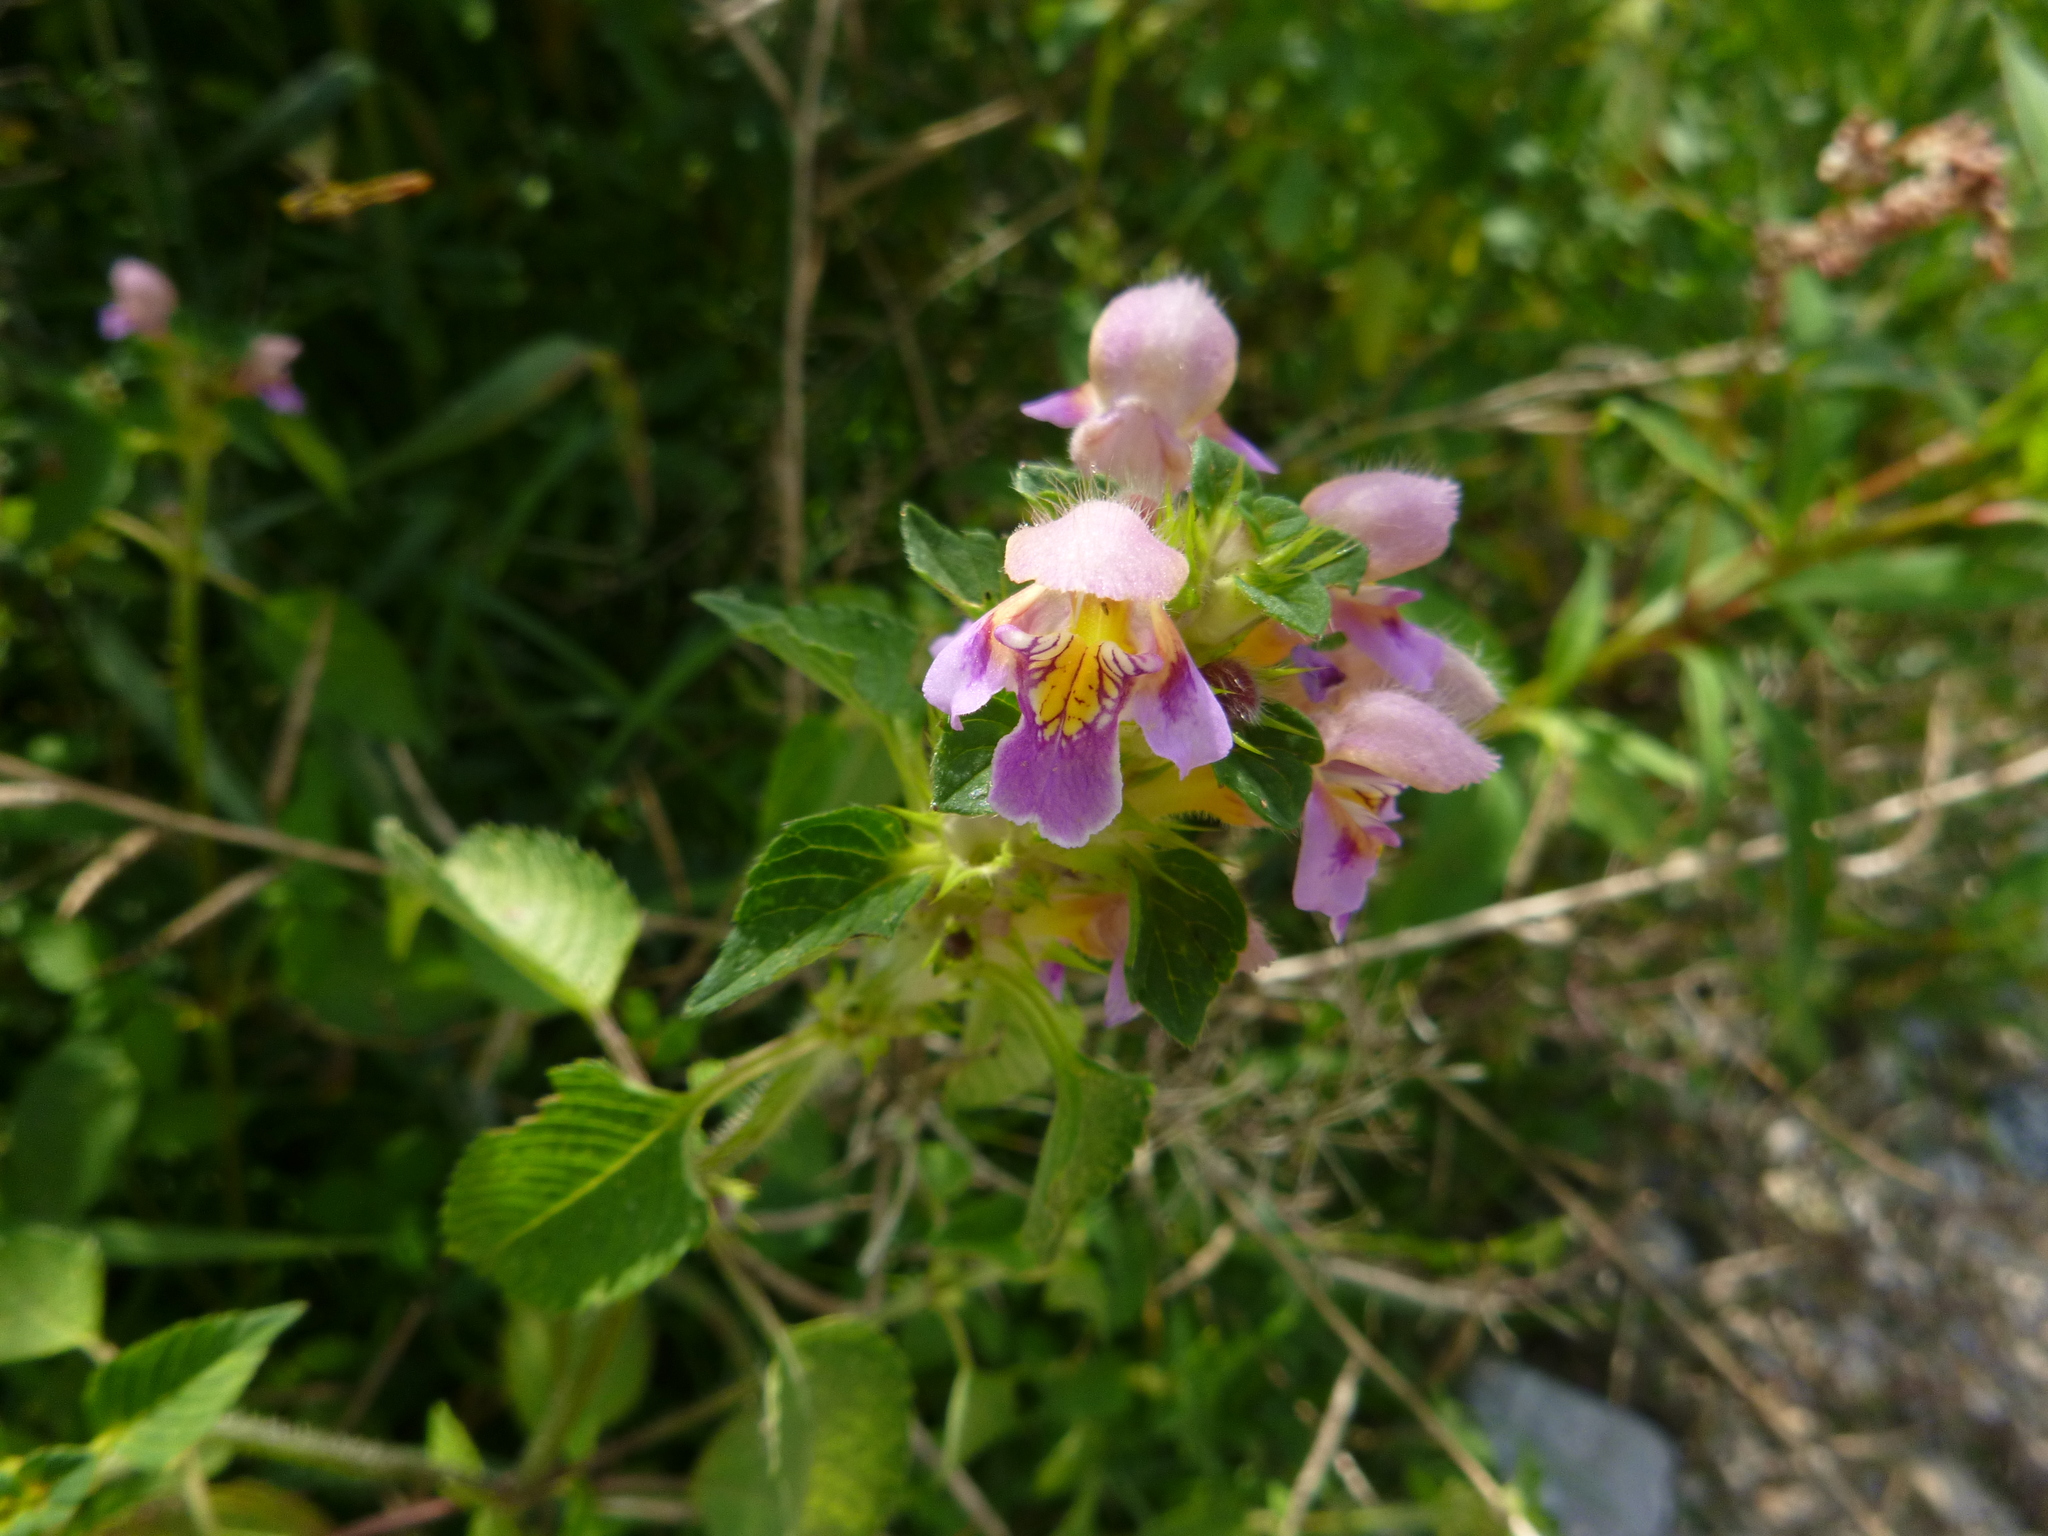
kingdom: Plantae
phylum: Tracheophyta
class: Magnoliopsida
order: Lamiales
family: Lamiaceae
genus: Galeopsis
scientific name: Galeopsis speciosa
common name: Large-flowered hemp-nettle
